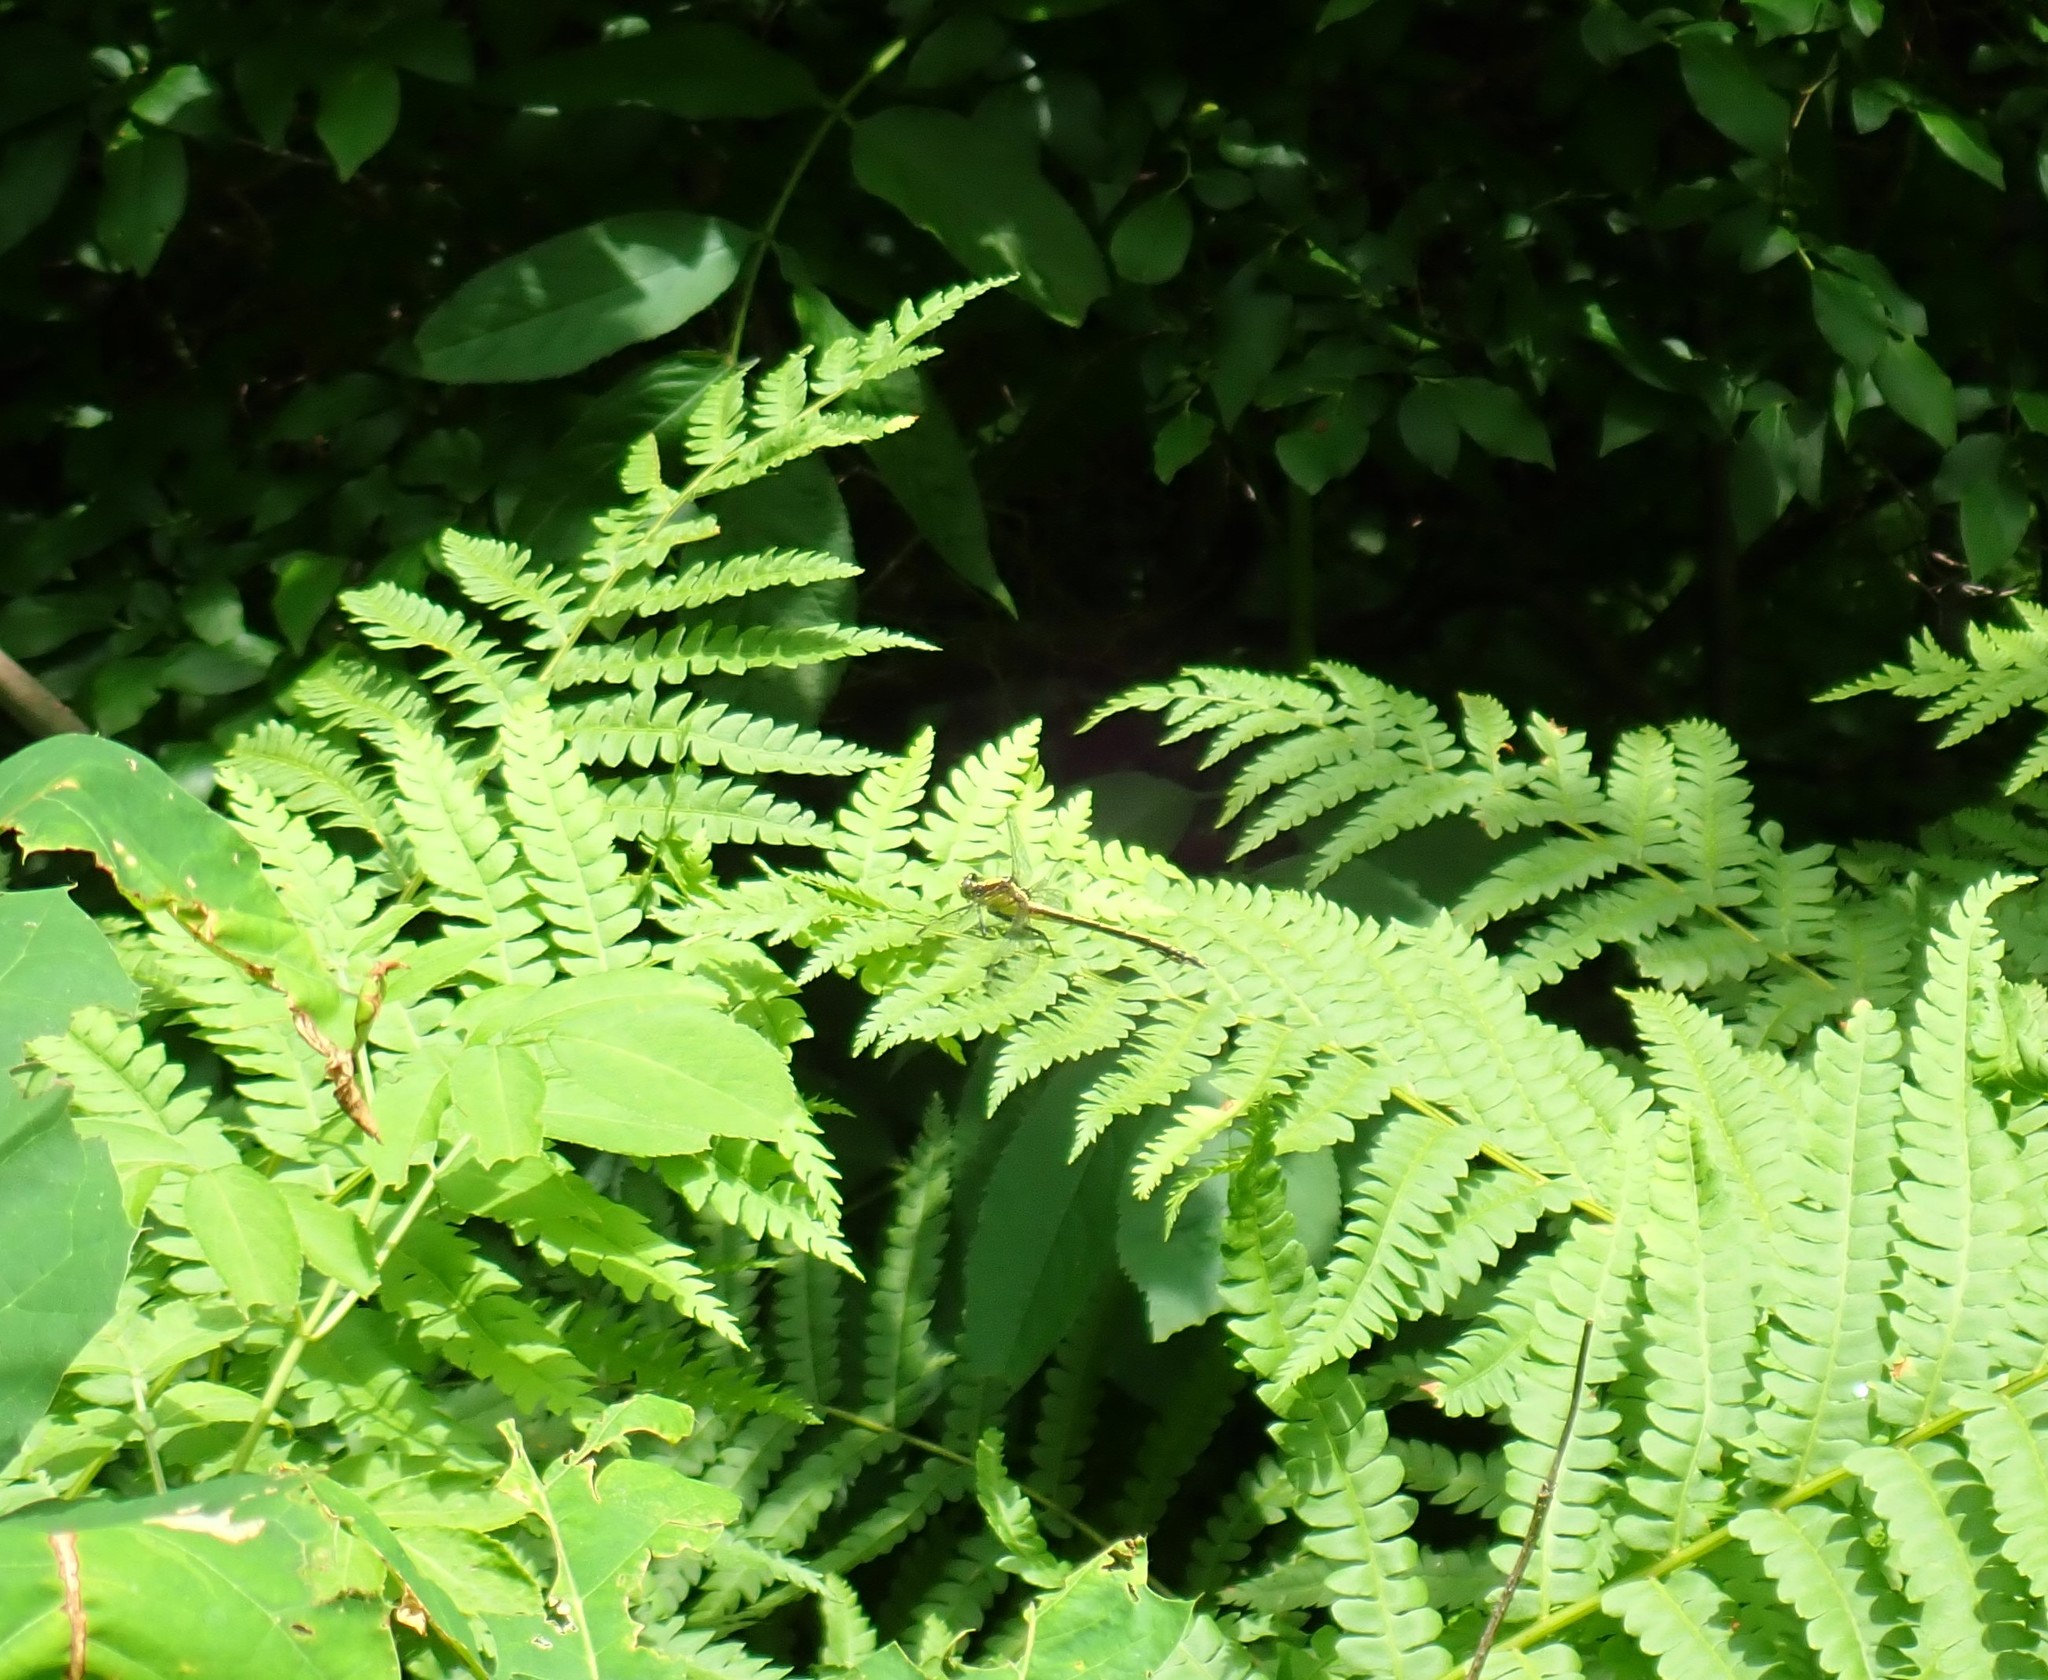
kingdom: Animalia
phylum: Arthropoda
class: Insecta
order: Odonata
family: Gomphidae
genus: Dromogomphus
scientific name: Dromogomphus spinosus
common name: Black-shouldered spinyleg
